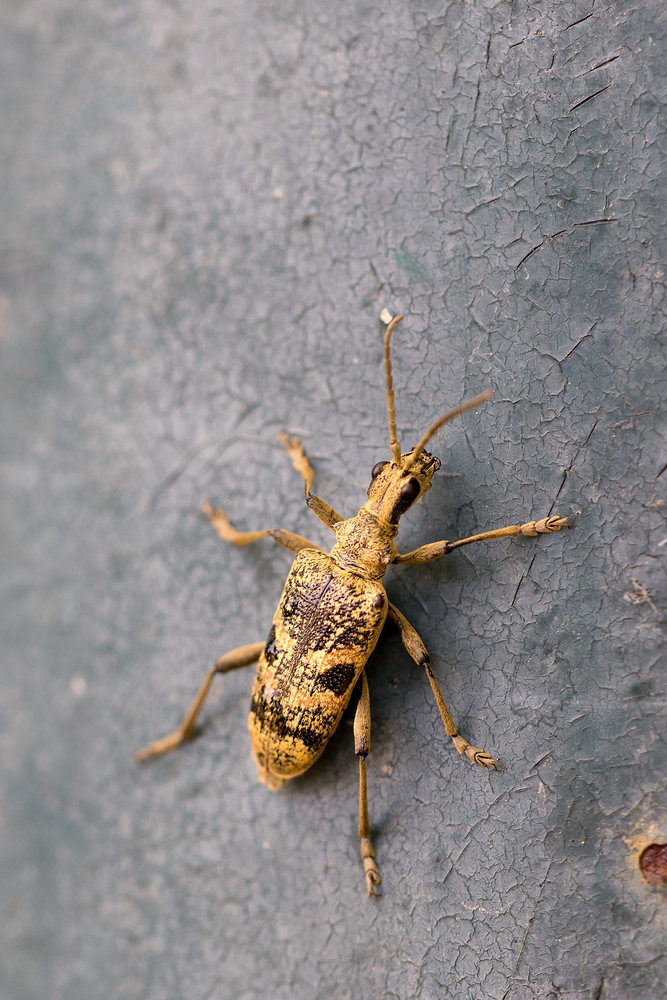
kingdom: Animalia
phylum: Arthropoda
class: Insecta
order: Coleoptera
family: Cerambycidae
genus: Rhagium
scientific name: Rhagium mordax
